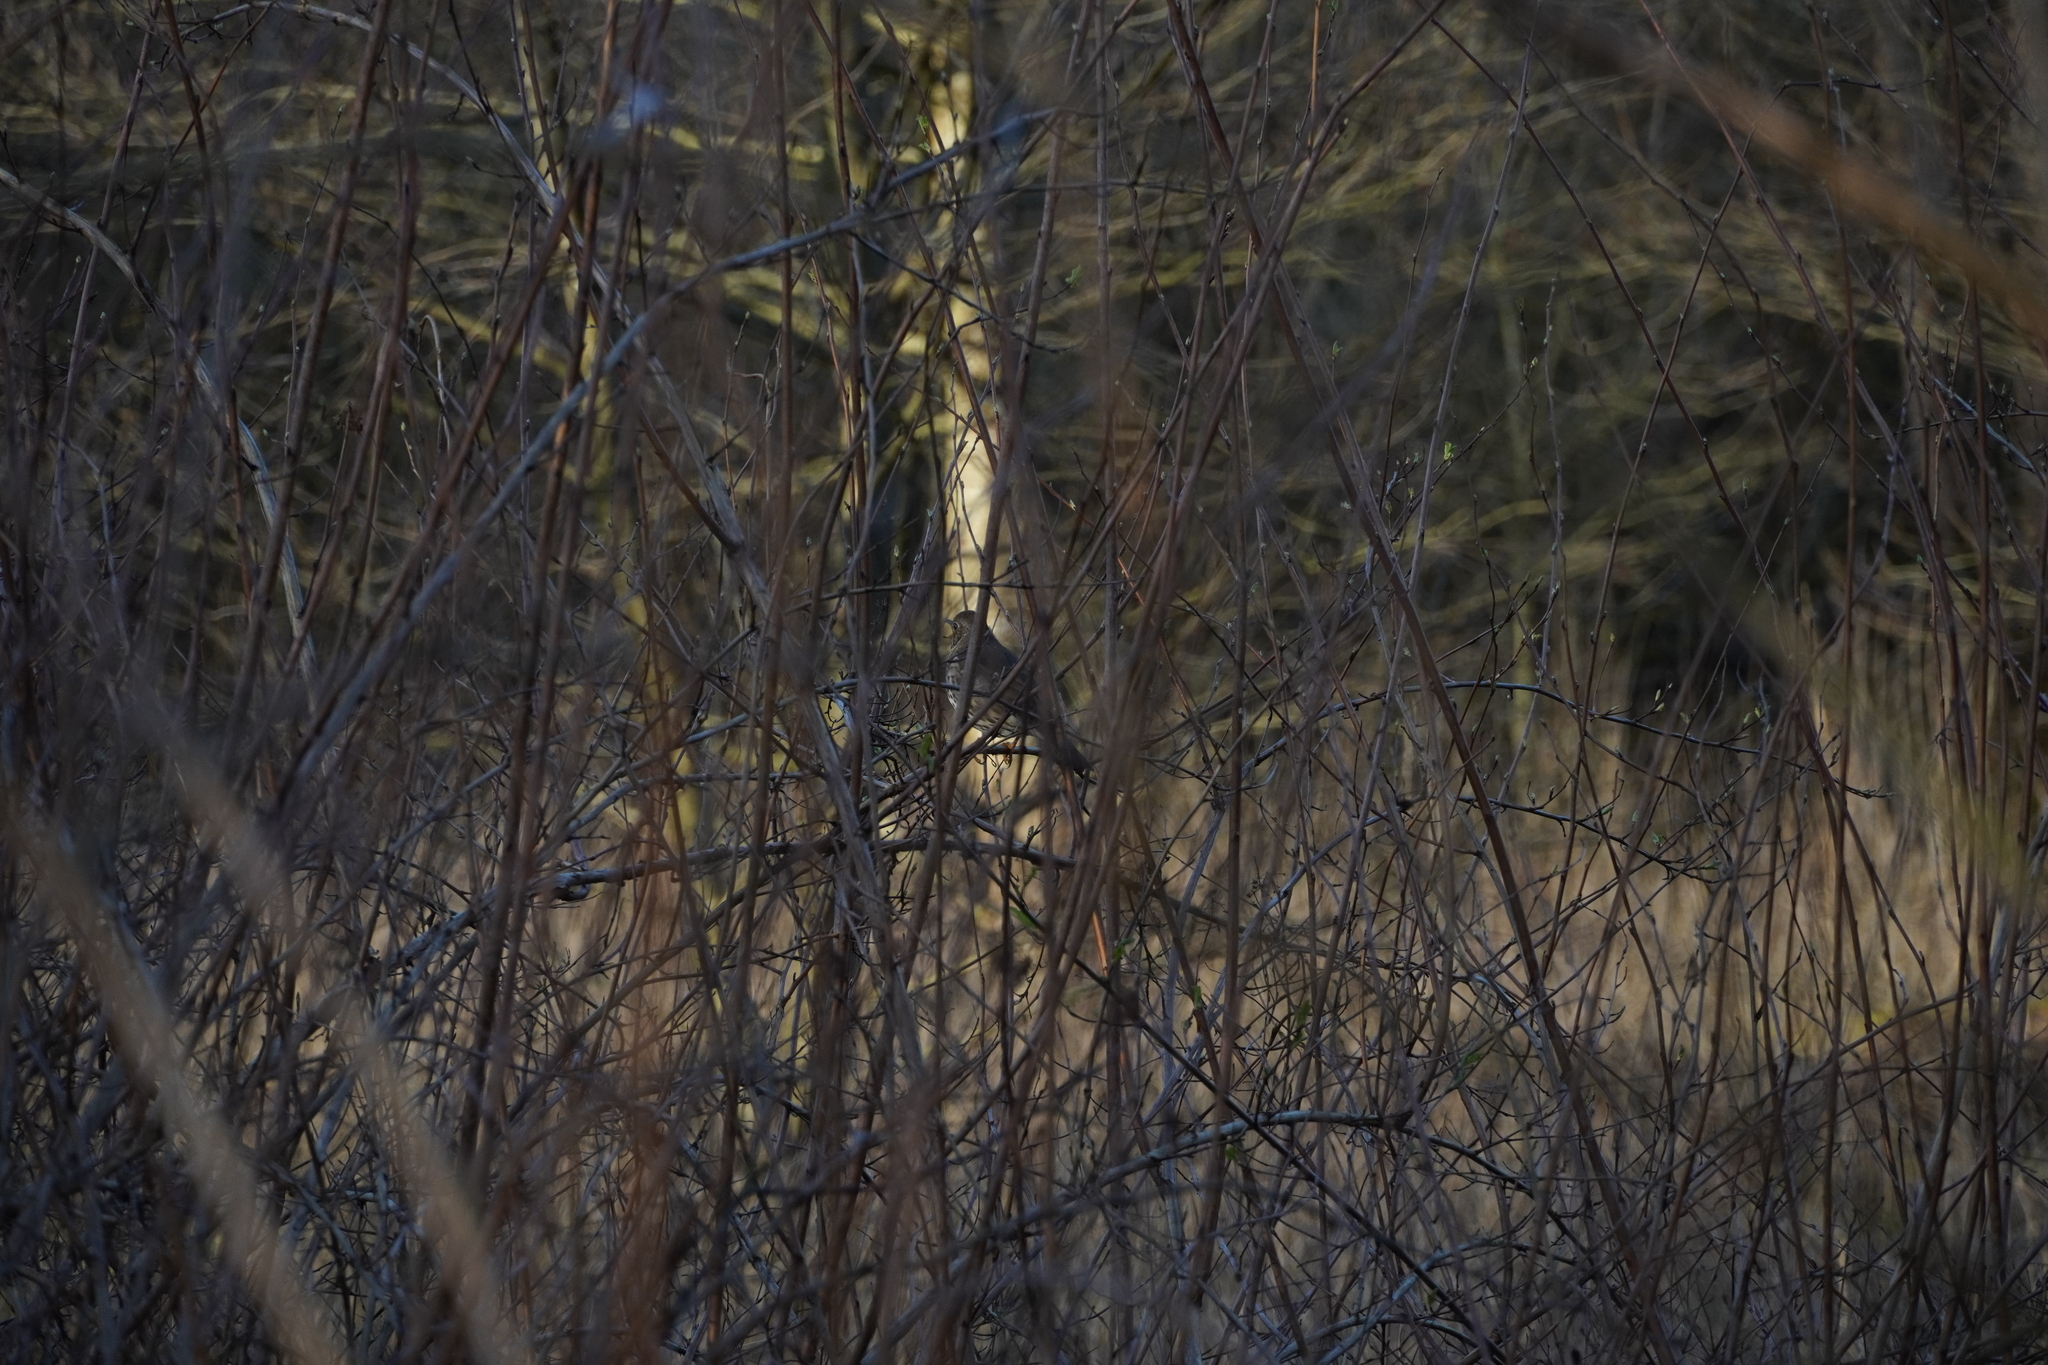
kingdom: Animalia
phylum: Chordata
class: Aves
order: Passeriformes
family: Turdidae
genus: Turdus
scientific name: Turdus philomelos
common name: Song thrush
